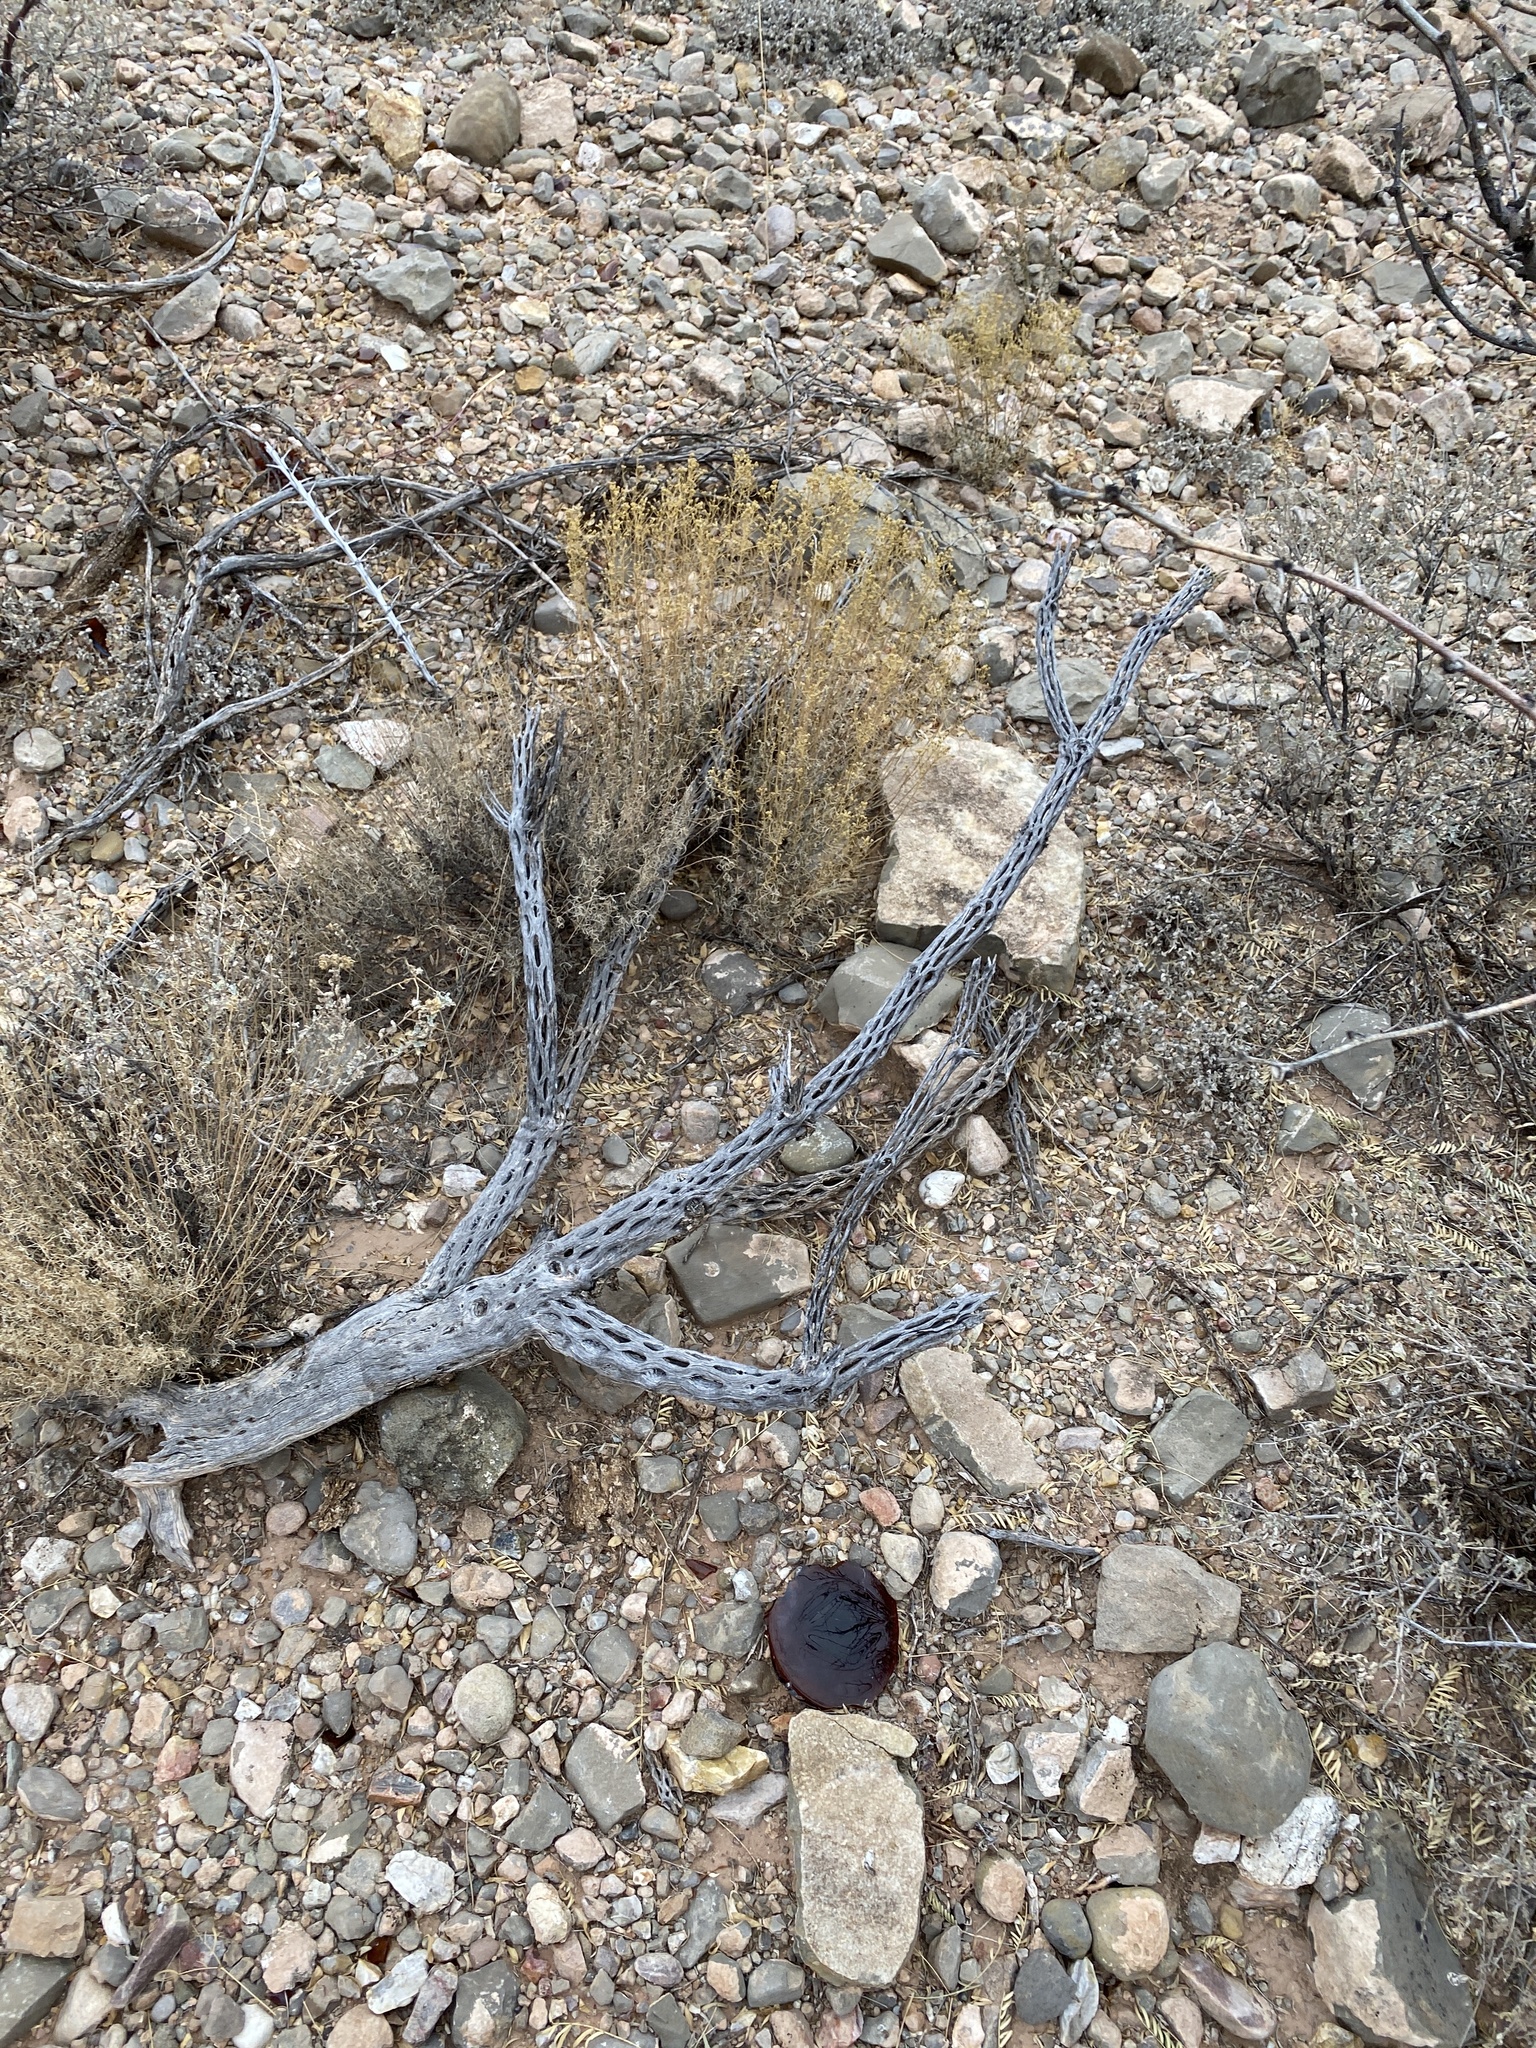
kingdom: Plantae
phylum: Tracheophyta
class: Magnoliopsida
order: Caryophyllales
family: Cactaceae
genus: Cylindropuntia
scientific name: Cylindropuntia imbricata
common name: Candelabrum cactus
